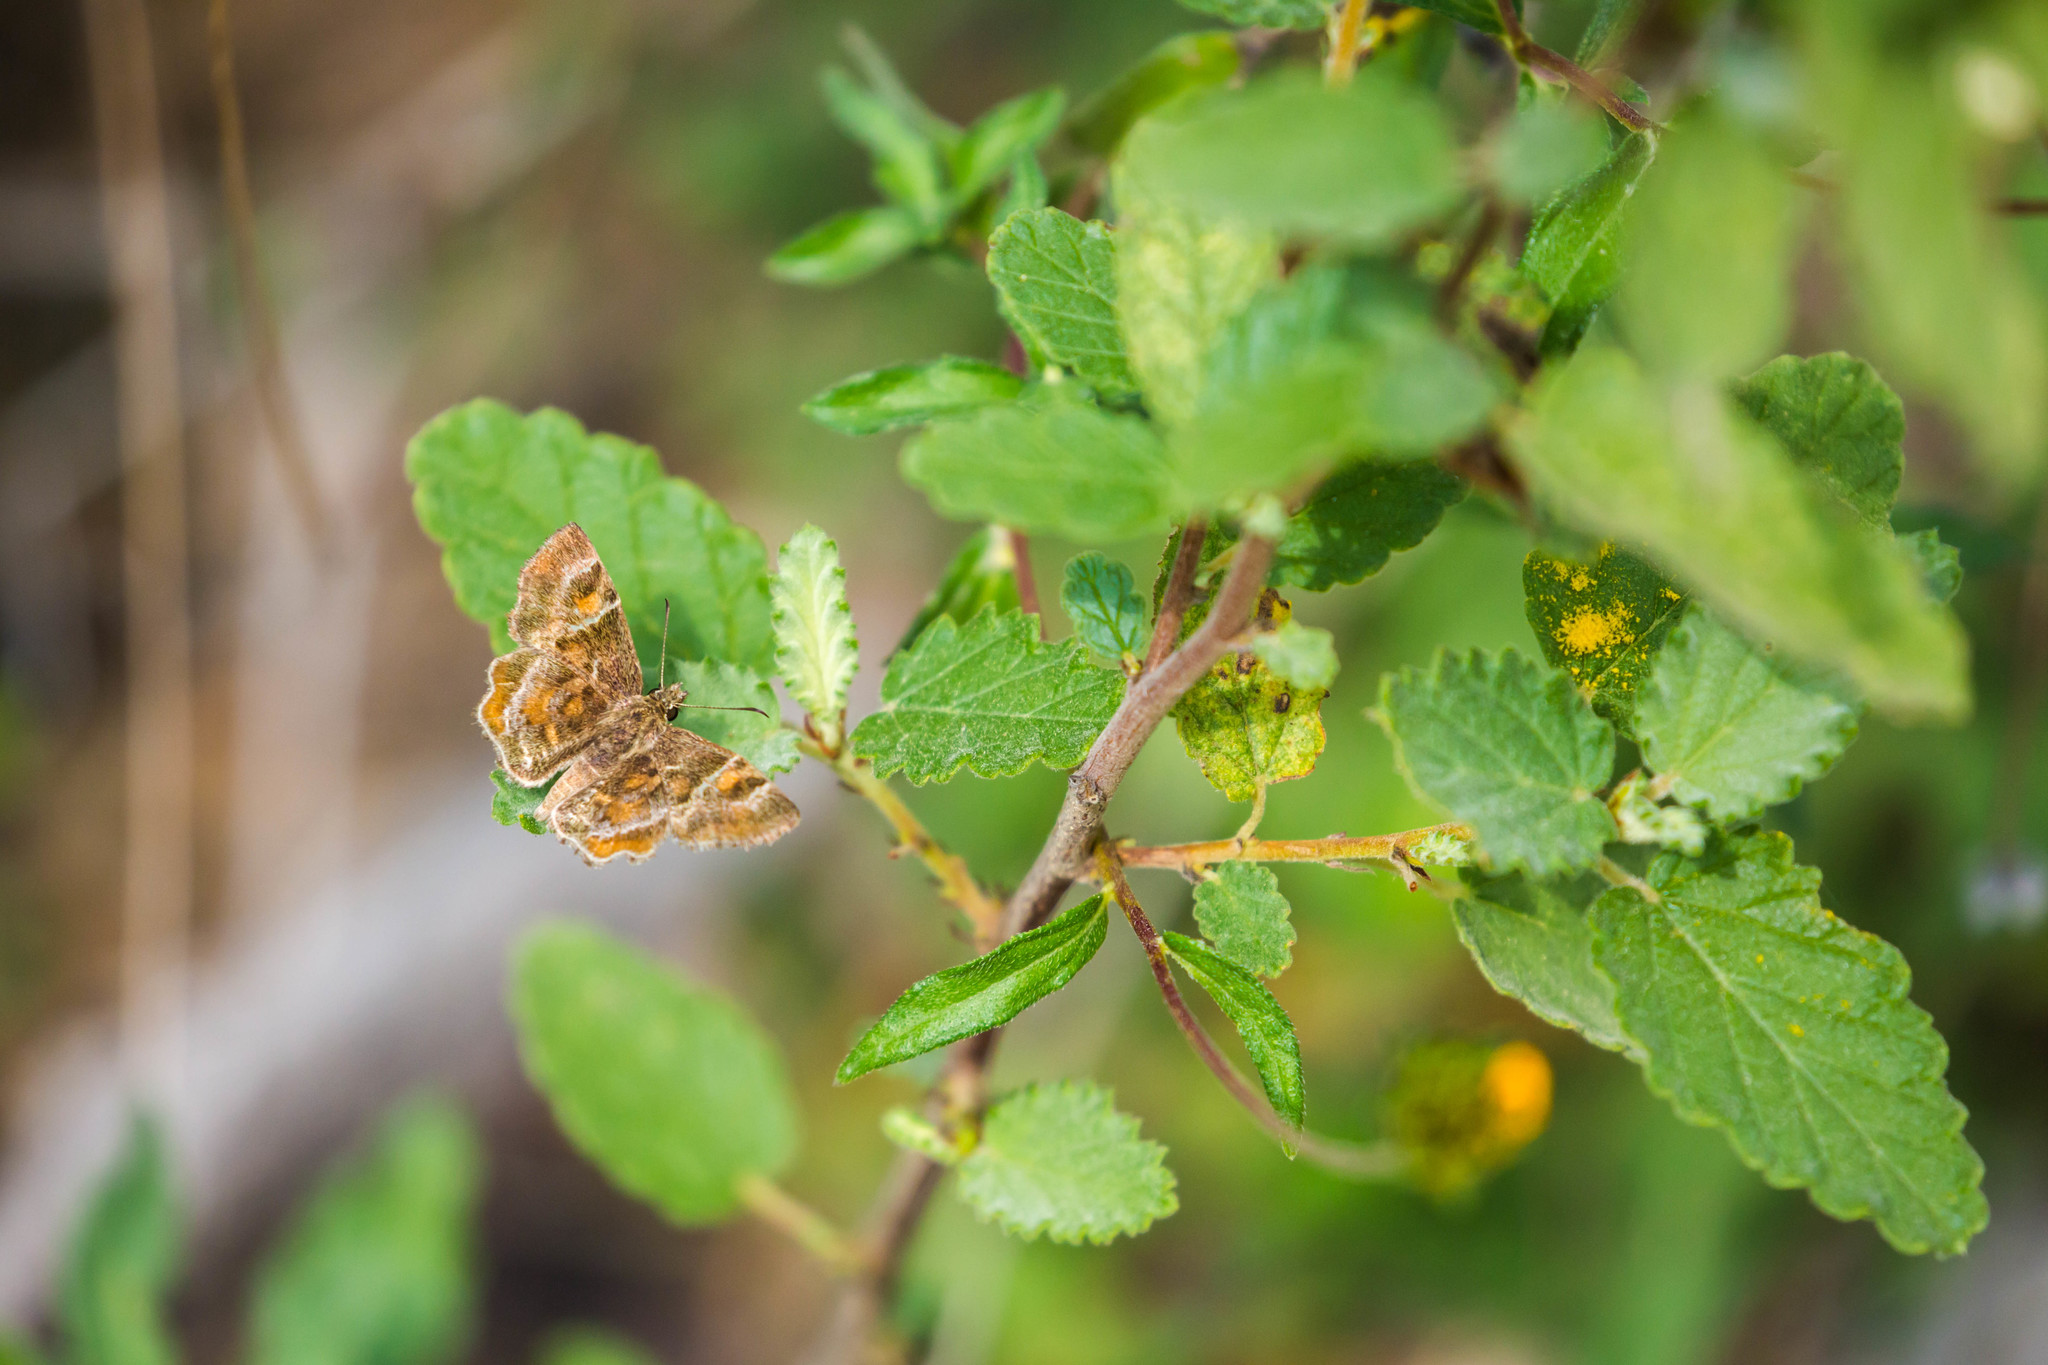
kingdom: Animalia
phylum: Arthropoda
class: Insecta
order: Lepidoptera
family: Hesperiidae
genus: Systasea
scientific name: Systasea pulverulenta
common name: Texas powdered skipper
